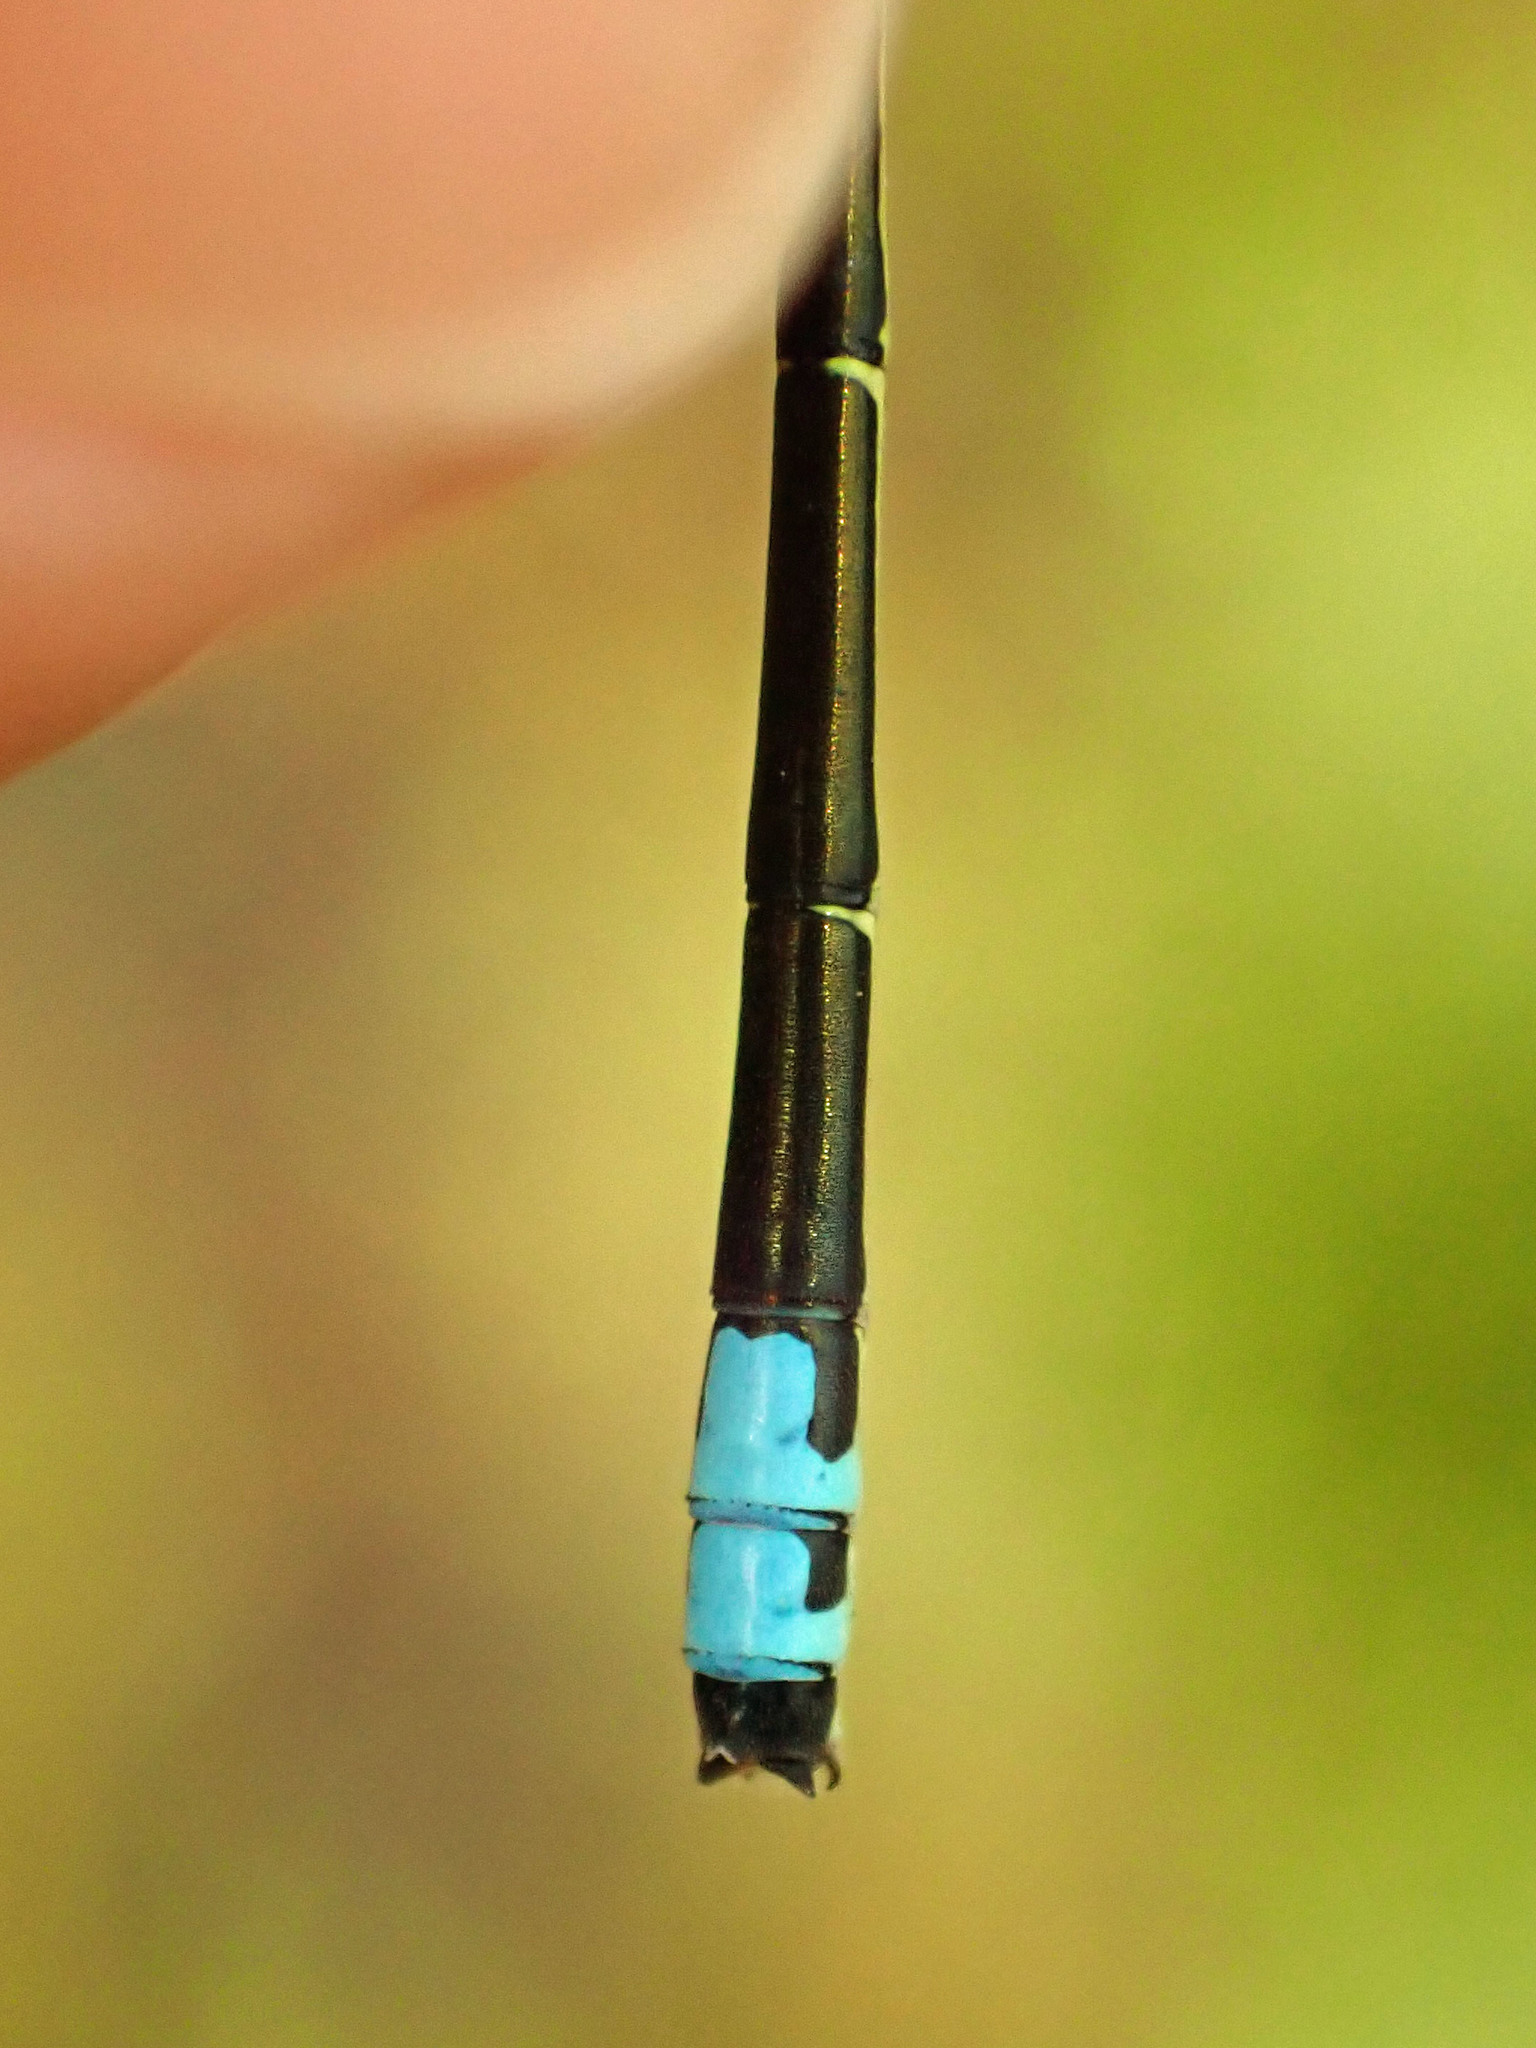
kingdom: Animalia
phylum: Arthropoda
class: Insecta
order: Odonata
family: Coenagrionidae
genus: Ischnura
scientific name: Ischnura verticalis
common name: Eastern forktail
